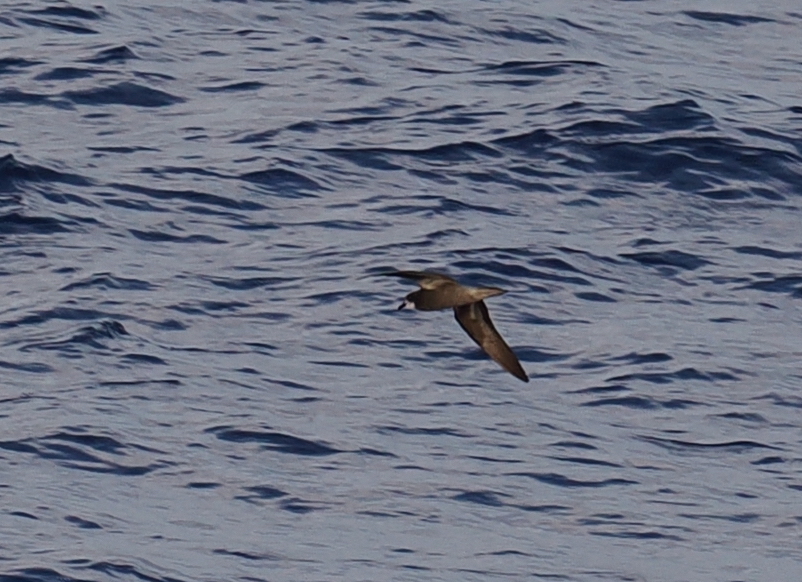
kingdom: Animalia
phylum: Chordata
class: Aves
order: Procellariiformes
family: Procellariidae
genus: Pterodroma
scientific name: Pterodroma brevipes
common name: Collared petrel
